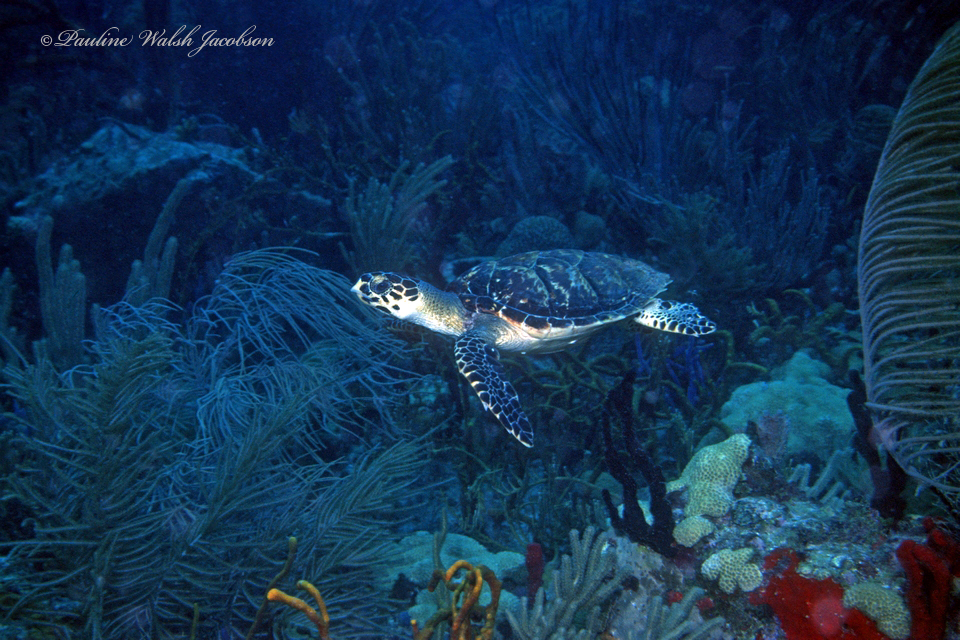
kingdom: Animalia
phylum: Chordata
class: Testudines
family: Cheloniidae
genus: Eretmochelys
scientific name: Eretmochelys imbricata
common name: Hawksbill turtle
